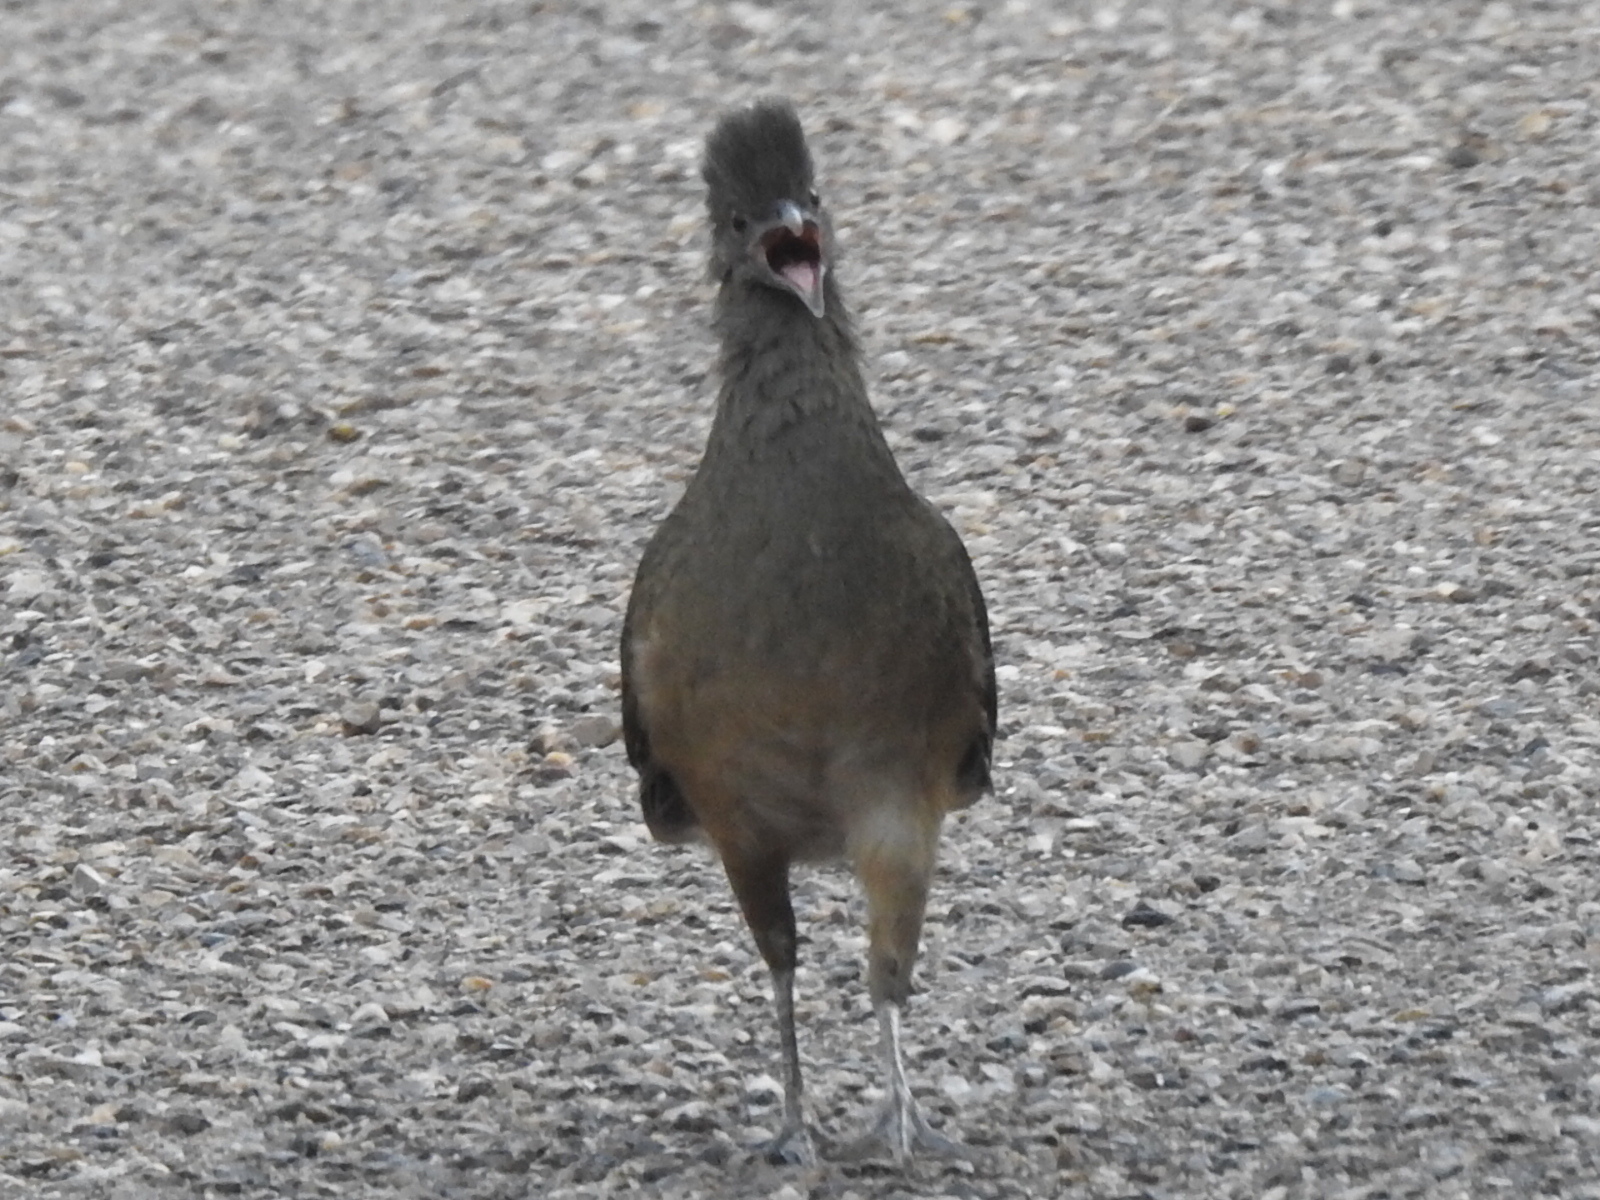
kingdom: Animalia
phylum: Chordata
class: Aves
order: Galliformes
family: Cracidae
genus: Ortalis
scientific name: Ortalis vetula
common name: Plain chachalaca
